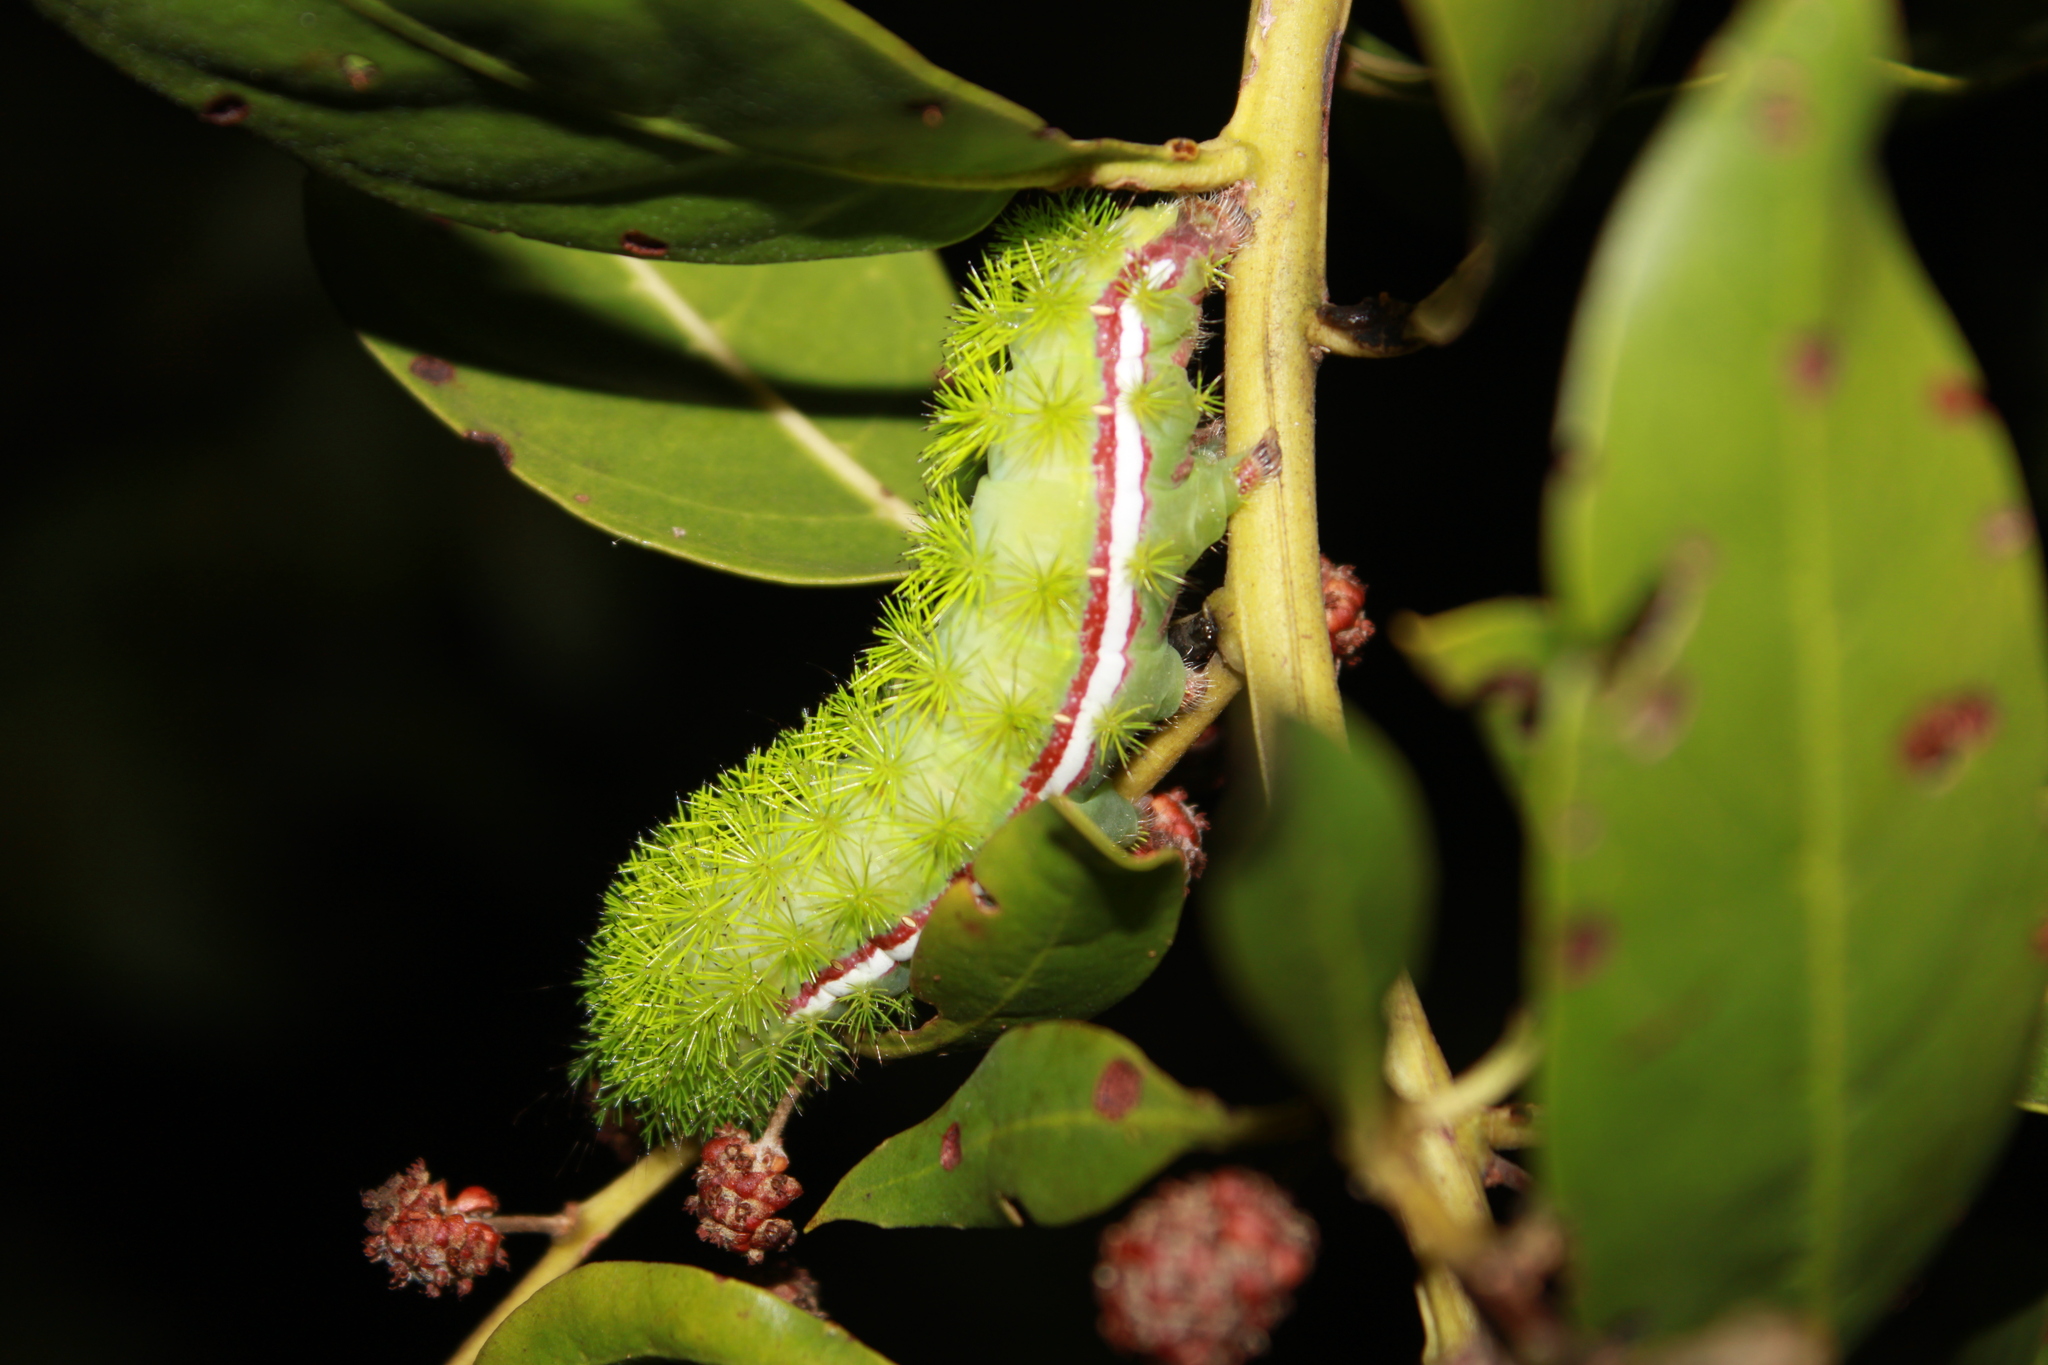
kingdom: Animalia
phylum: Arthropoda
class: Insecta
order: Lepidoptera
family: Saturniidae
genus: Automeris
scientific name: Automeris io
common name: Io moth
